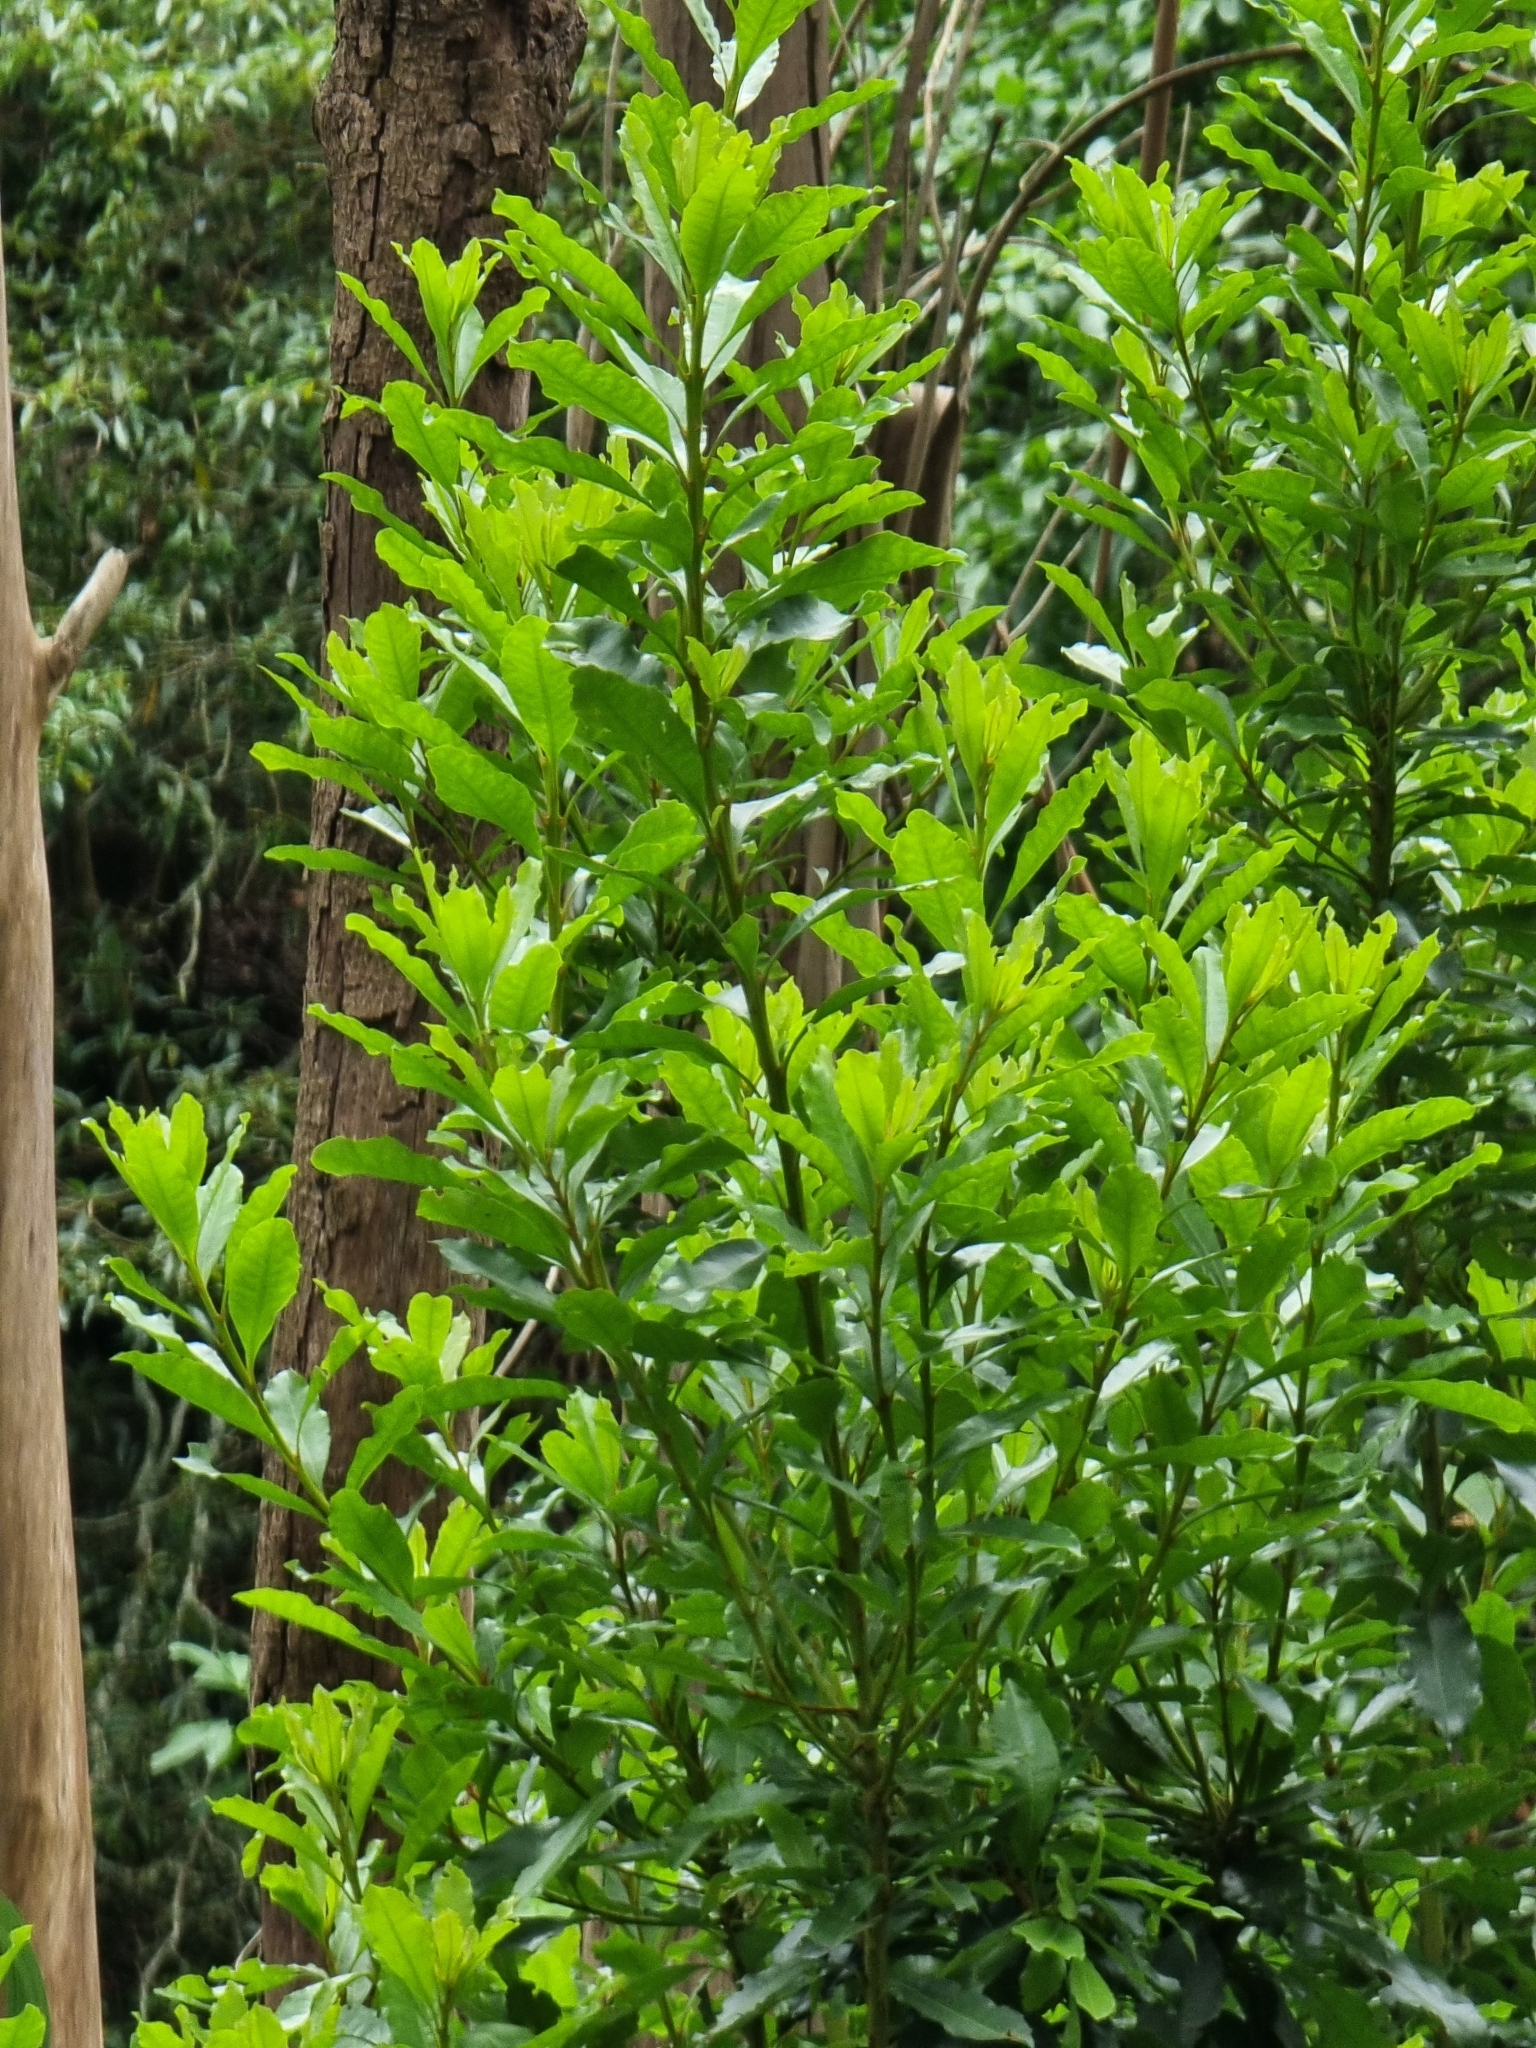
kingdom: Plantae
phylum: Tracheophyta
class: Magnoliopsida
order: Fagales
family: Myricaceae
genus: Morella
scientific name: Morella faya
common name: Firetree
